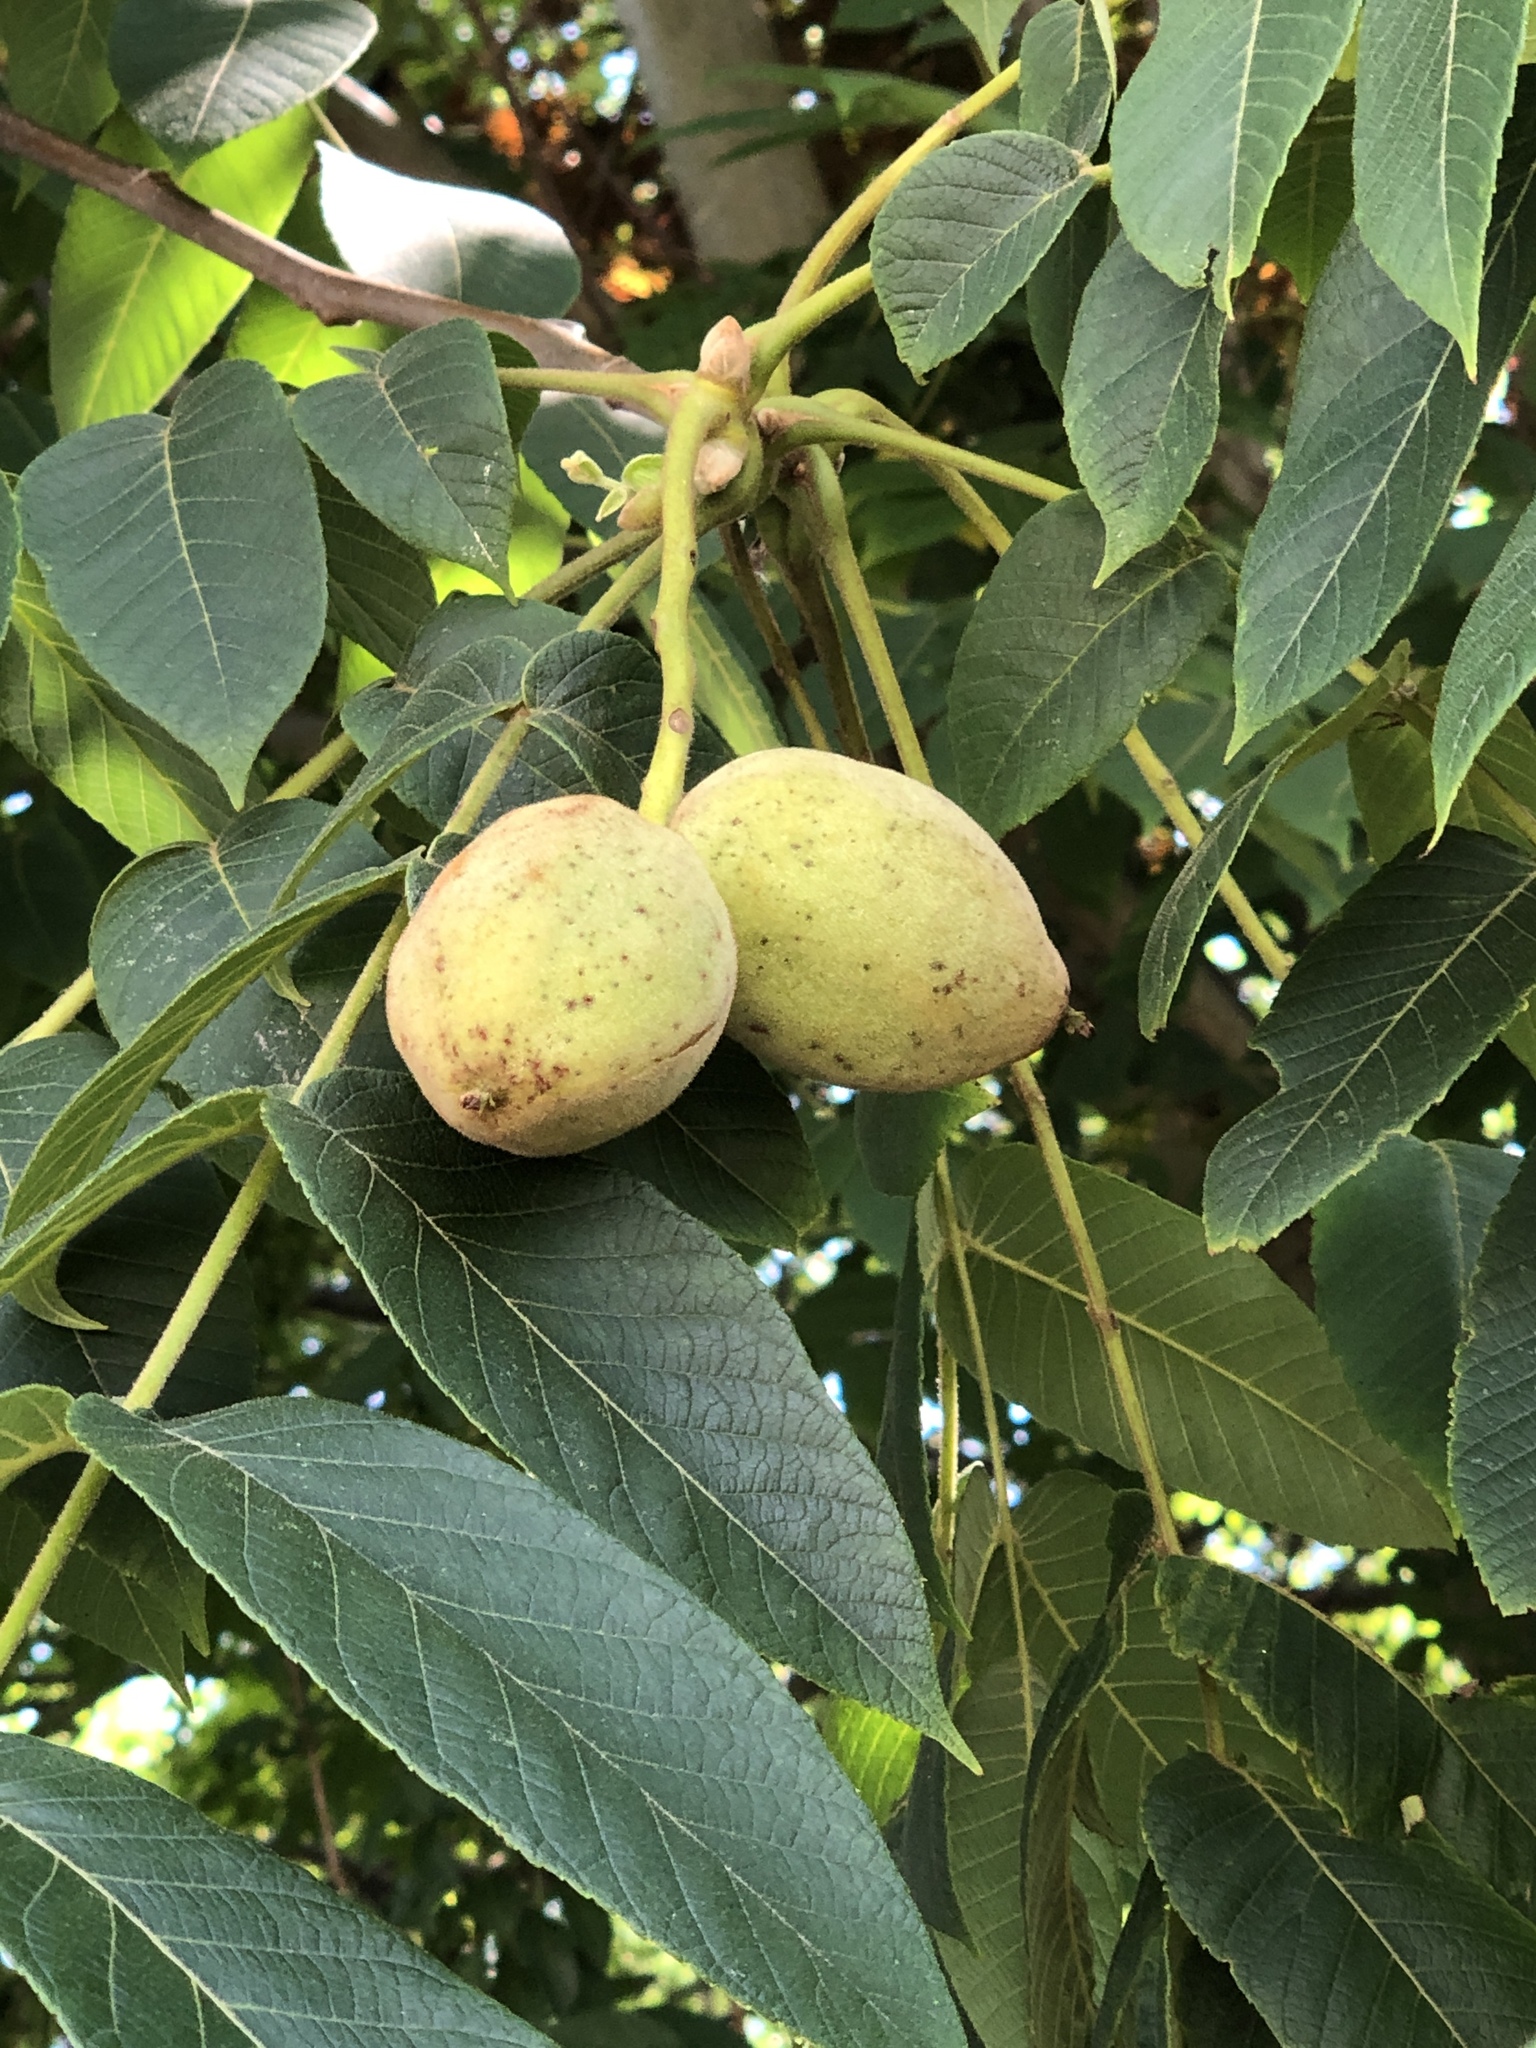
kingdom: Plantae
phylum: Tracheophyta
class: Magnoliopsida
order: Fagales
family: Juglandaceae
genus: Juglans
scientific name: Juglans nigra
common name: Black walnut
